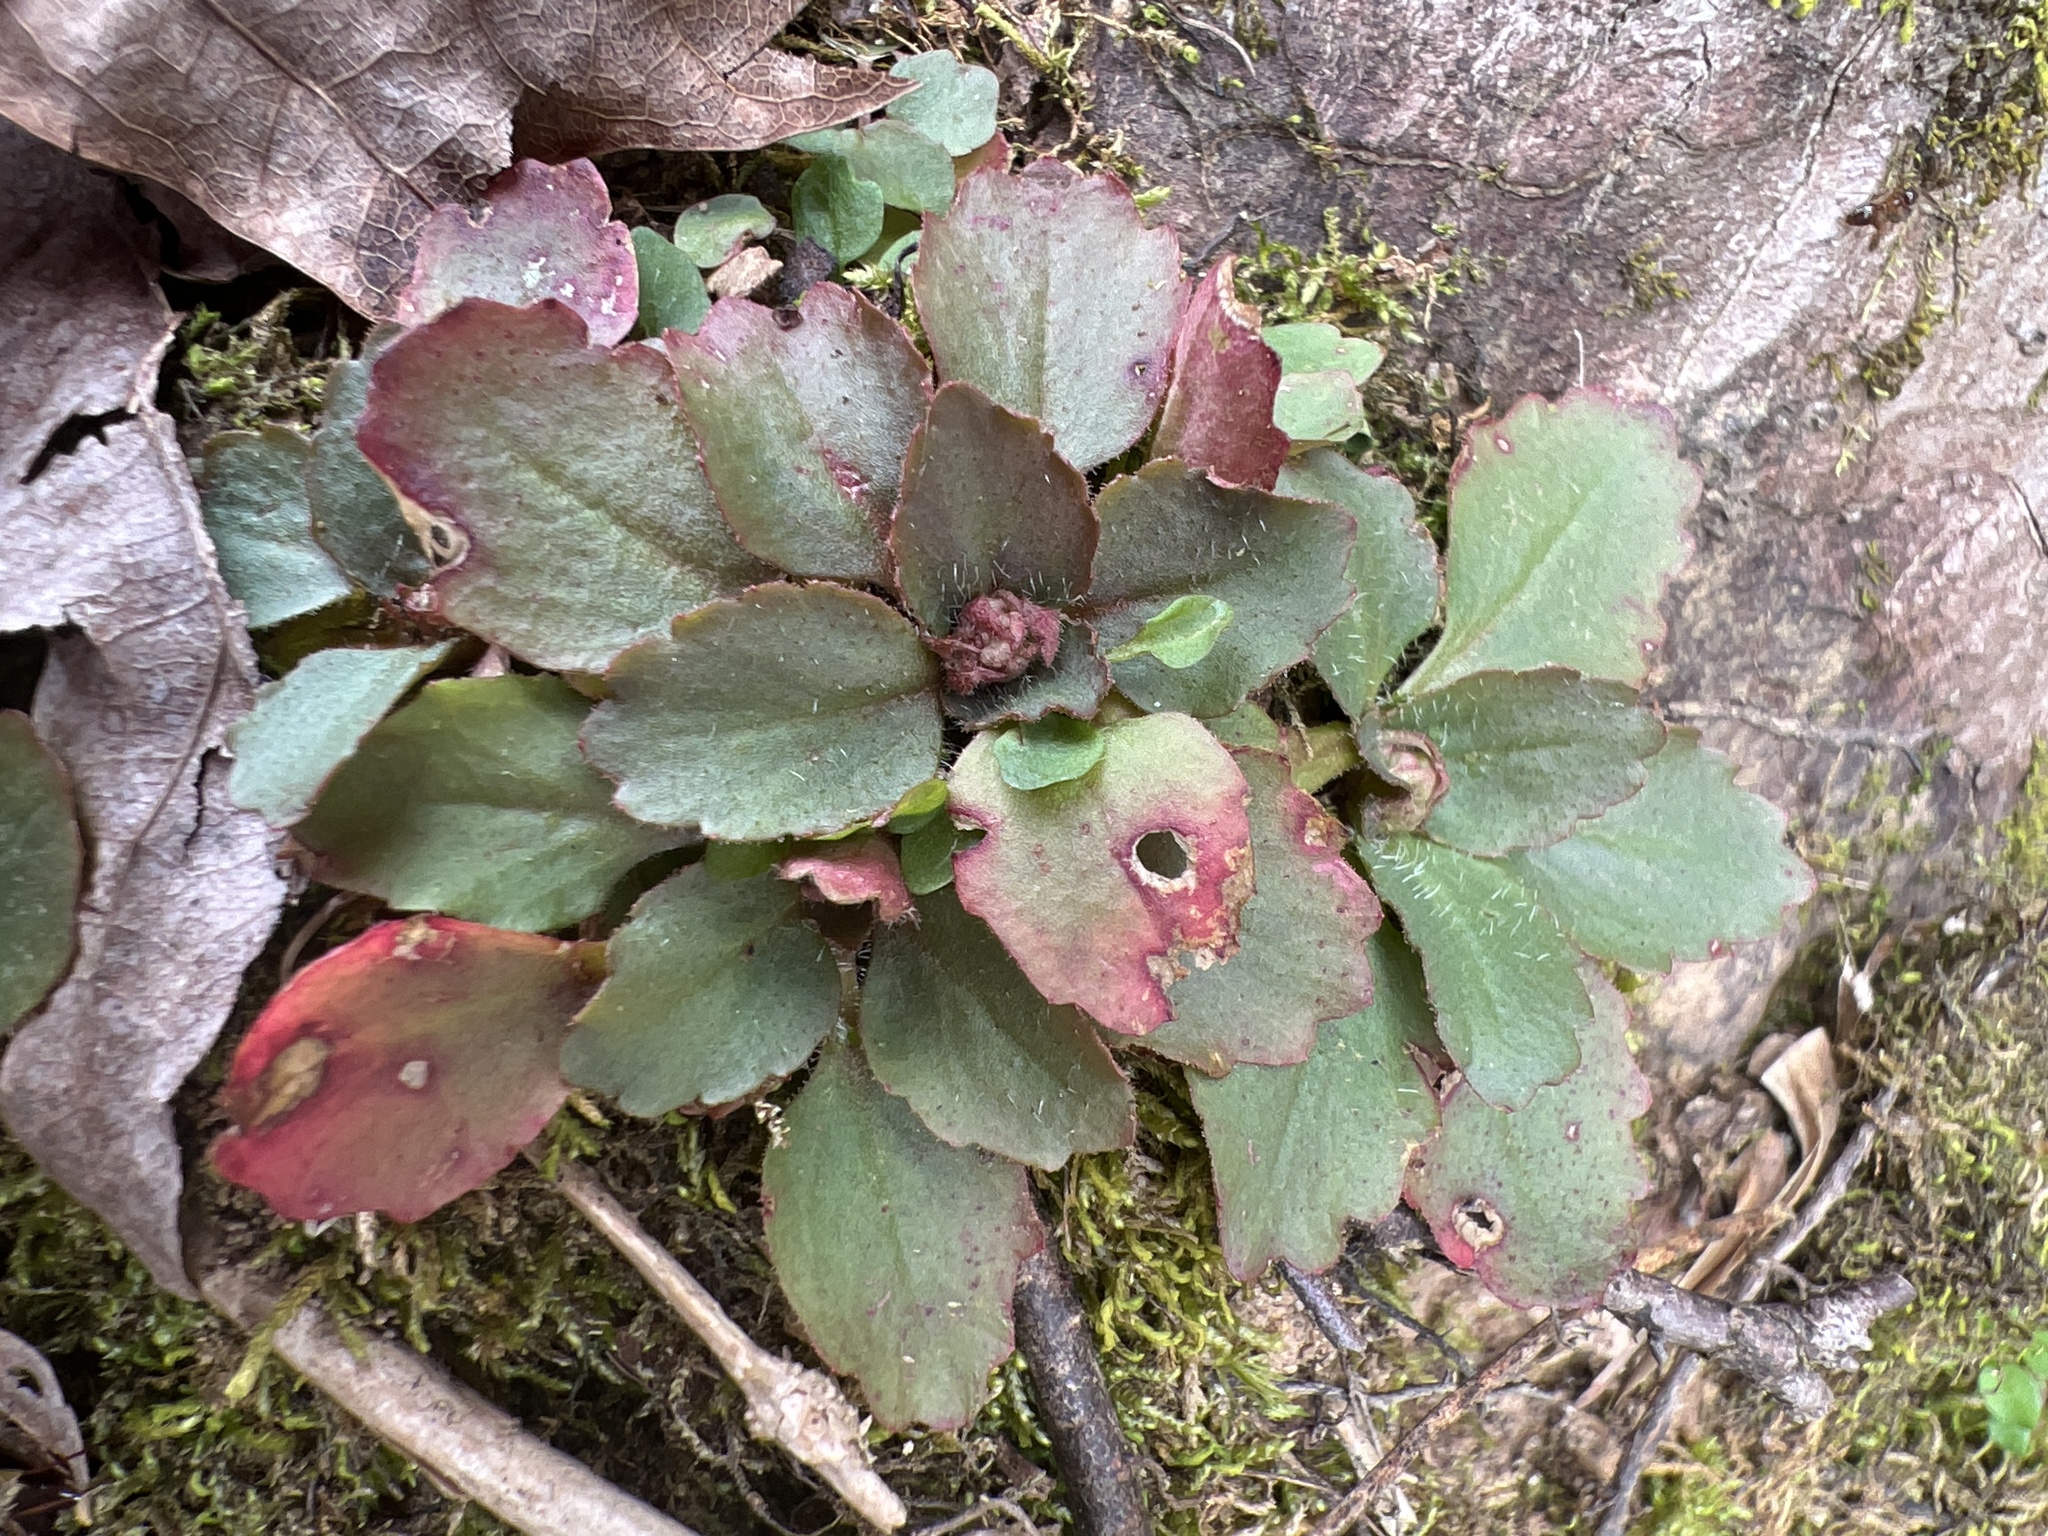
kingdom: Plantae
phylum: Tracheophyta
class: Magnoliopsida
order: Saxifragales
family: Saxifragaceae
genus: Micranthes
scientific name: Micranthes virginiensis
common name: Early saxifrage
